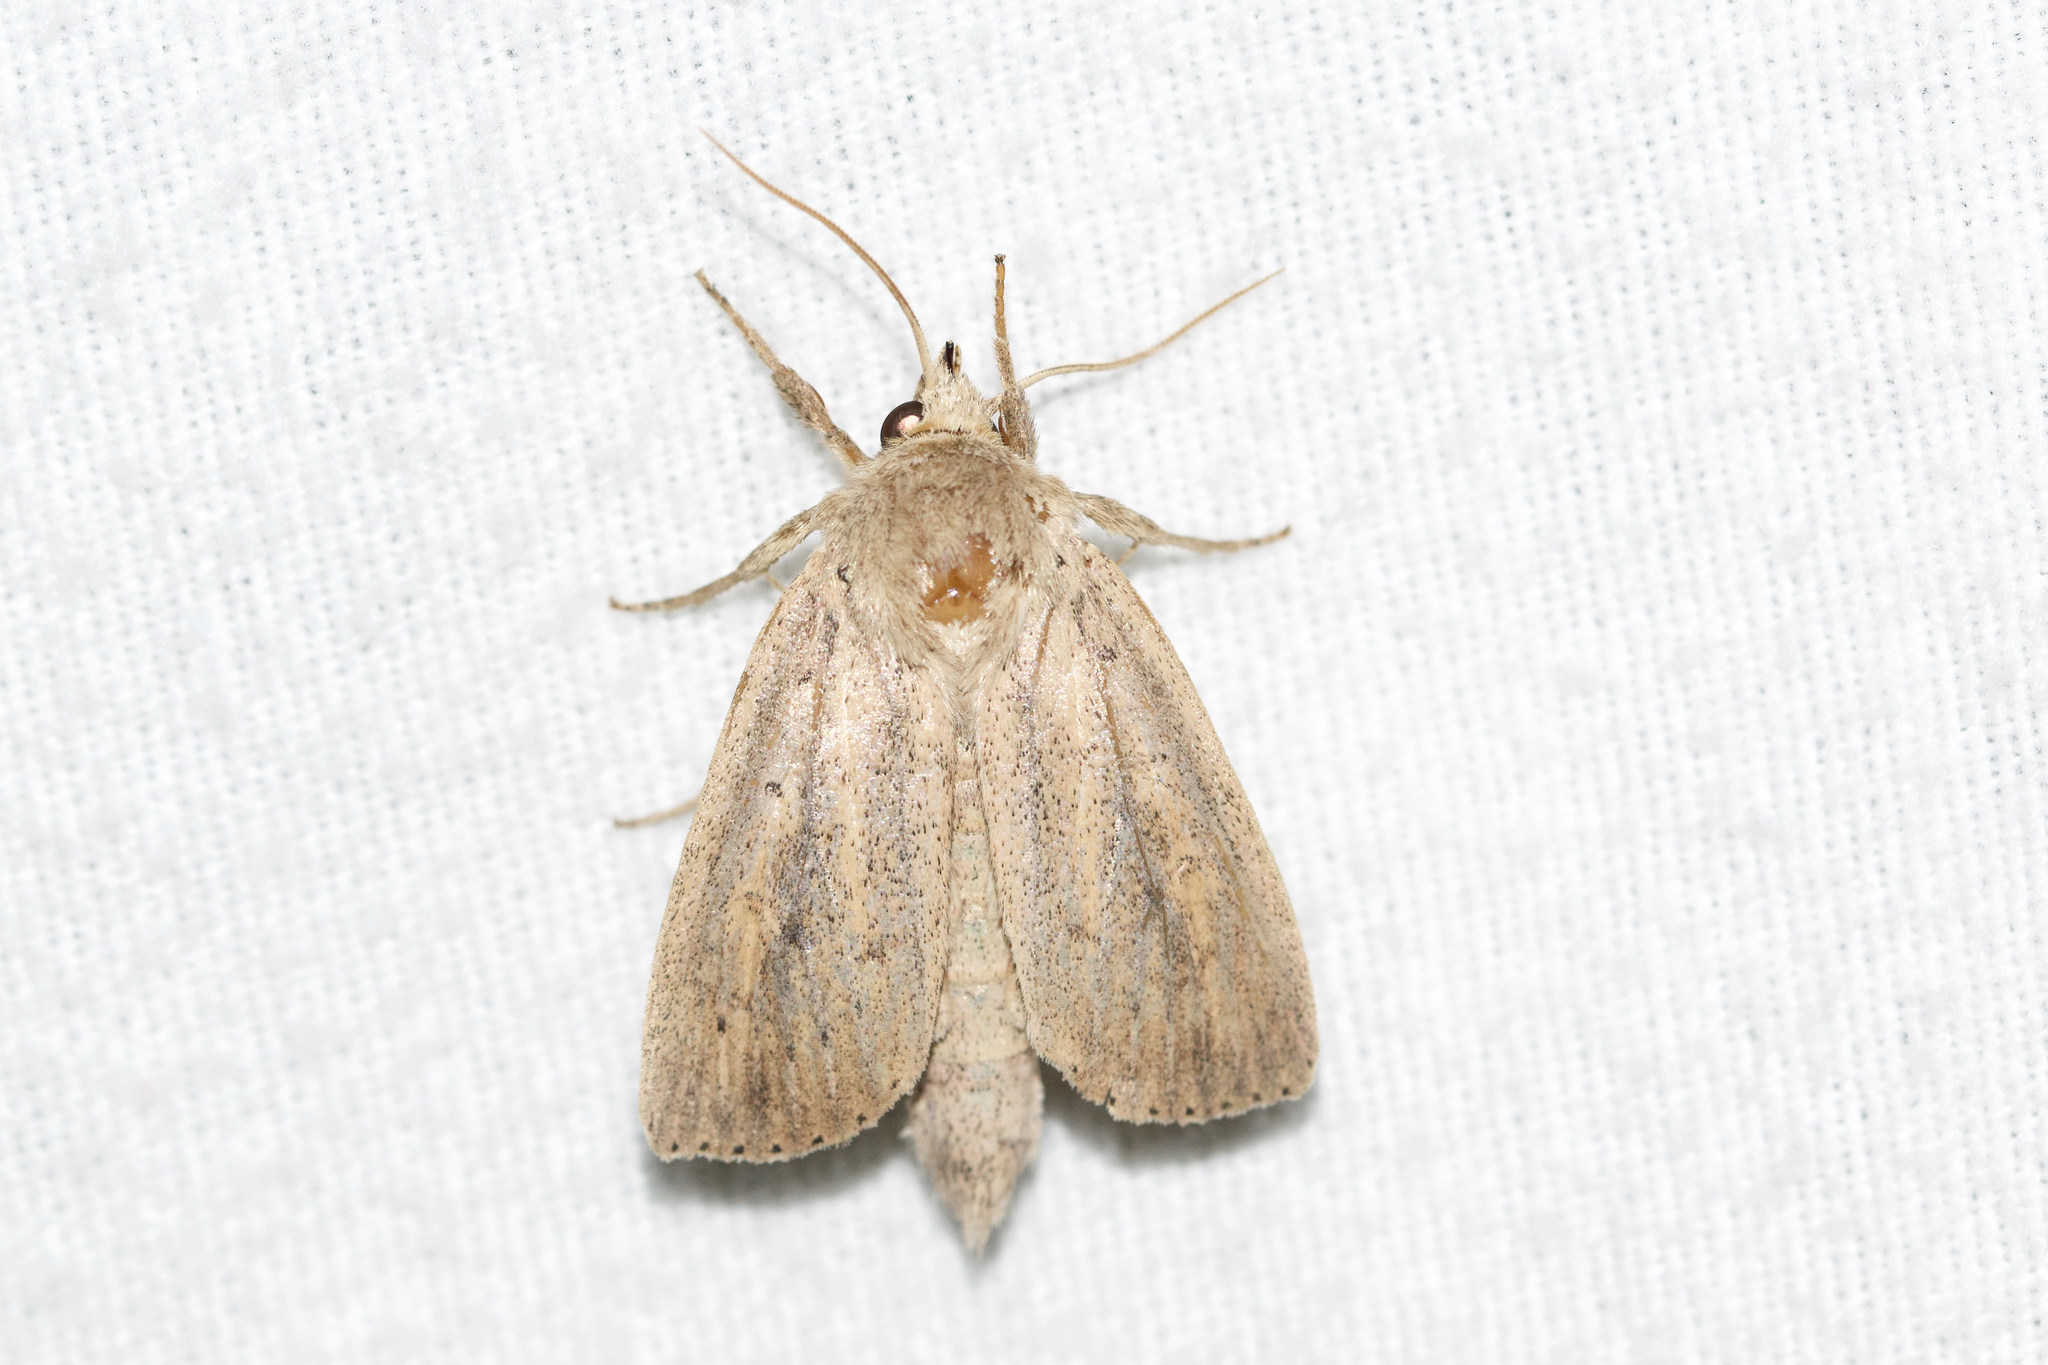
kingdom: Animalia
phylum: Arthropoda
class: Insecta
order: Lepidoptera
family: Noctuidae
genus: Globia
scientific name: Globia oblonga
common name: Oblong sedge borer moth
